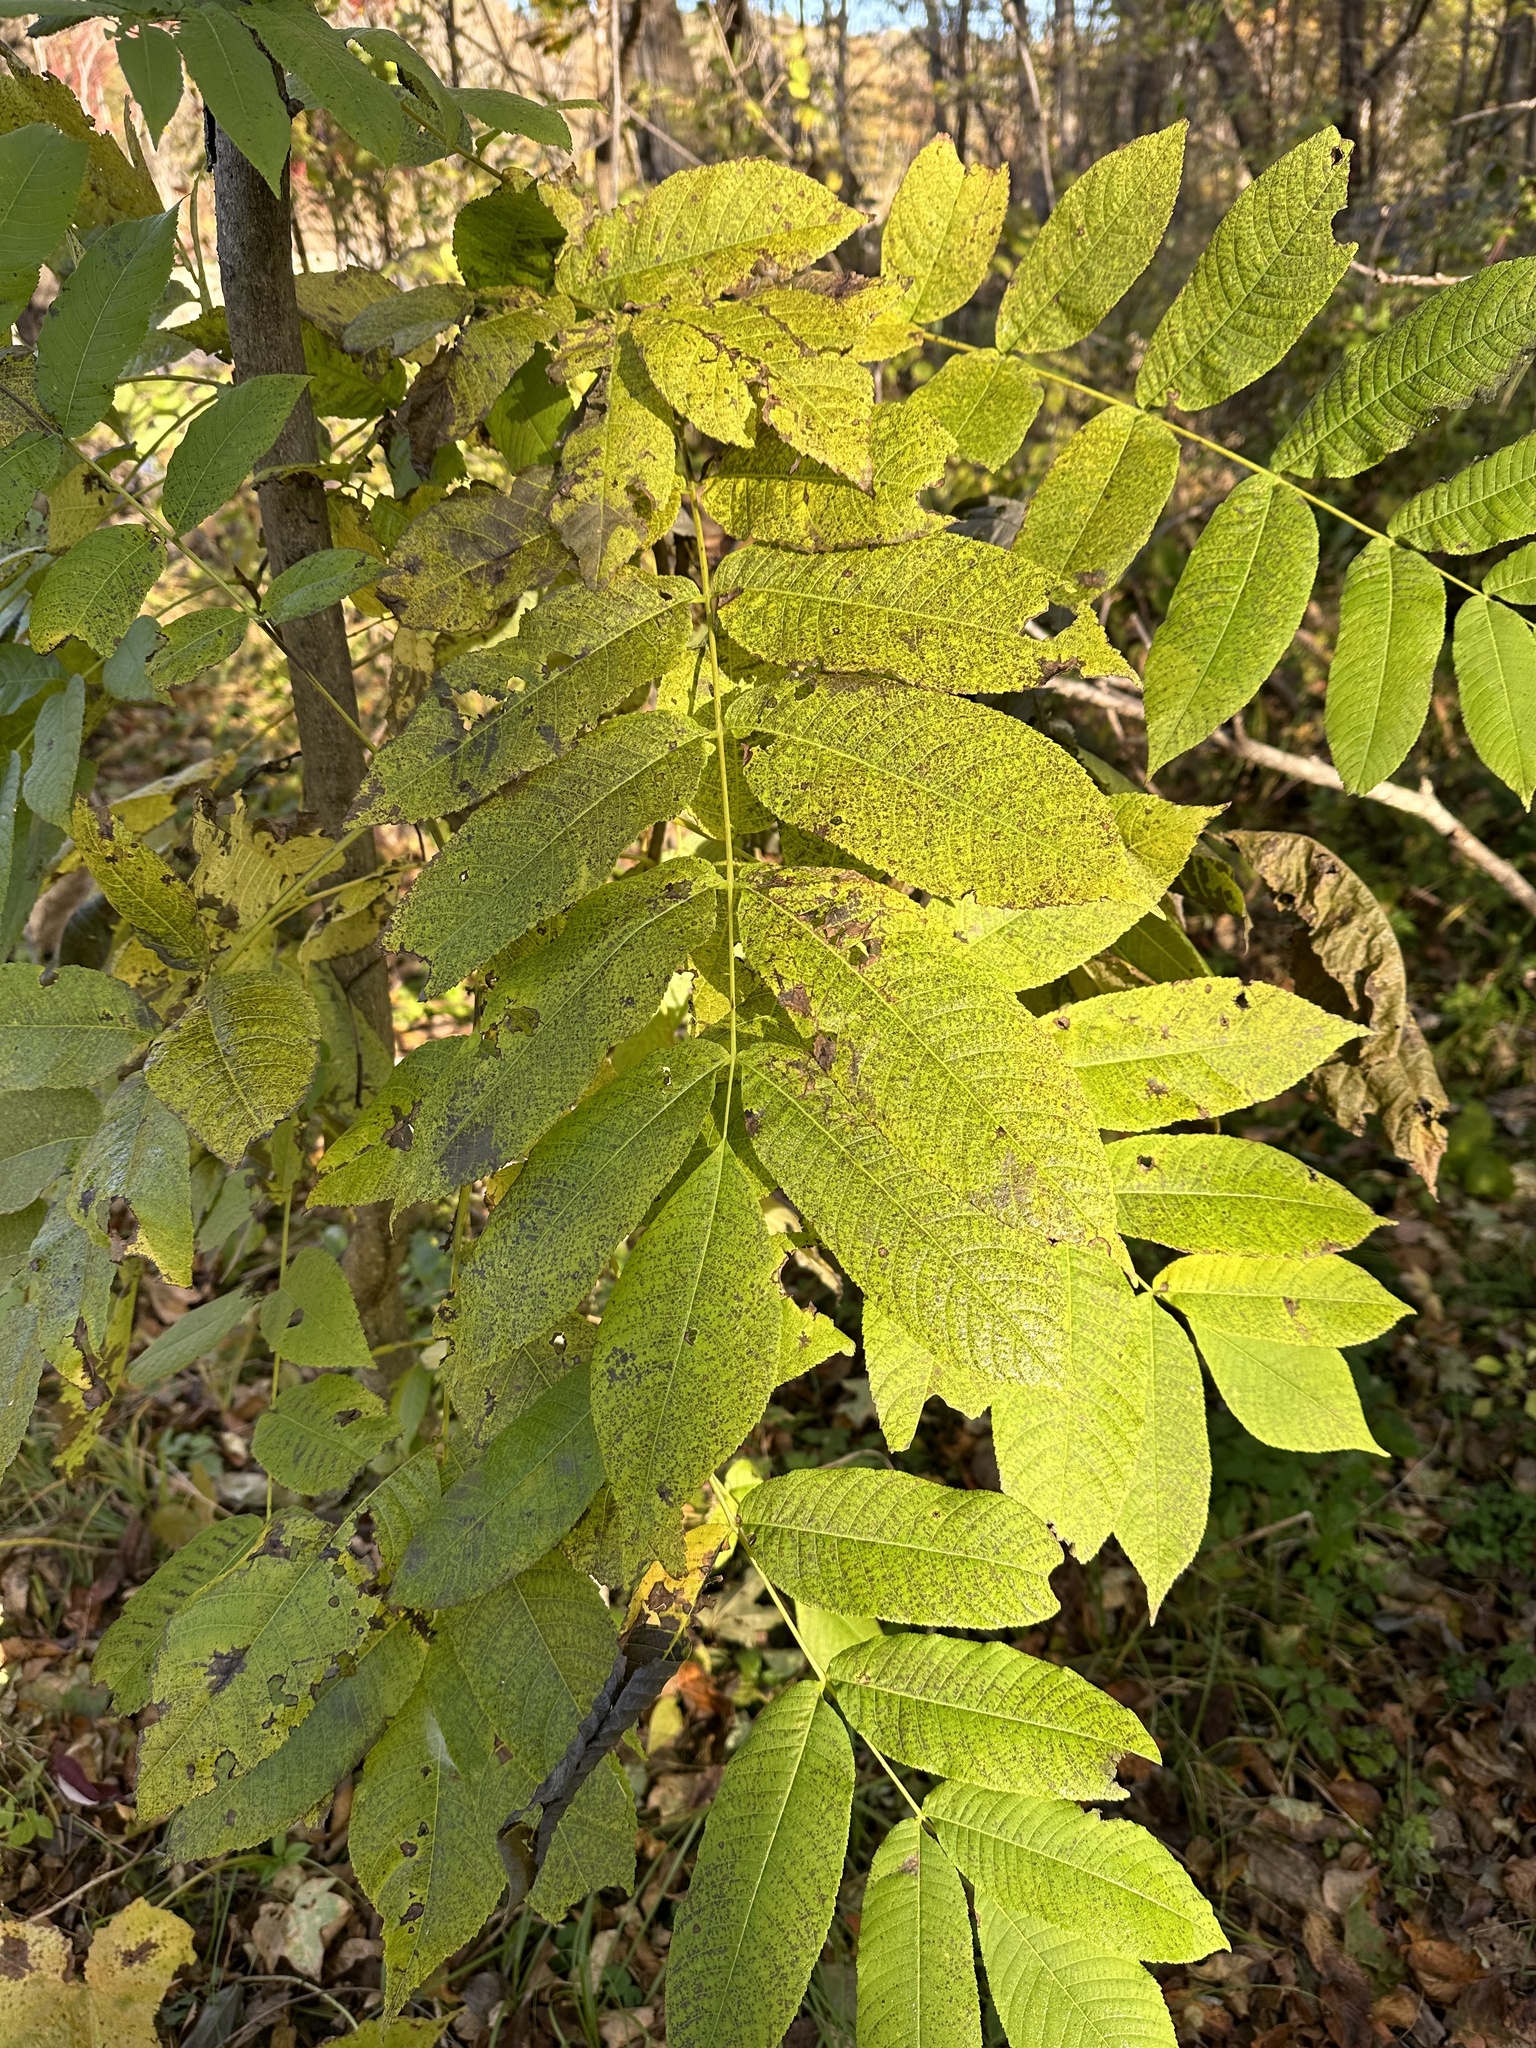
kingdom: Plantae
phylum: Tracheophyta
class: Magnoliopsida
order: Fagales
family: Juglandaceae
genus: Juglans
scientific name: Juglans mandshurica
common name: Manchurian walnut
